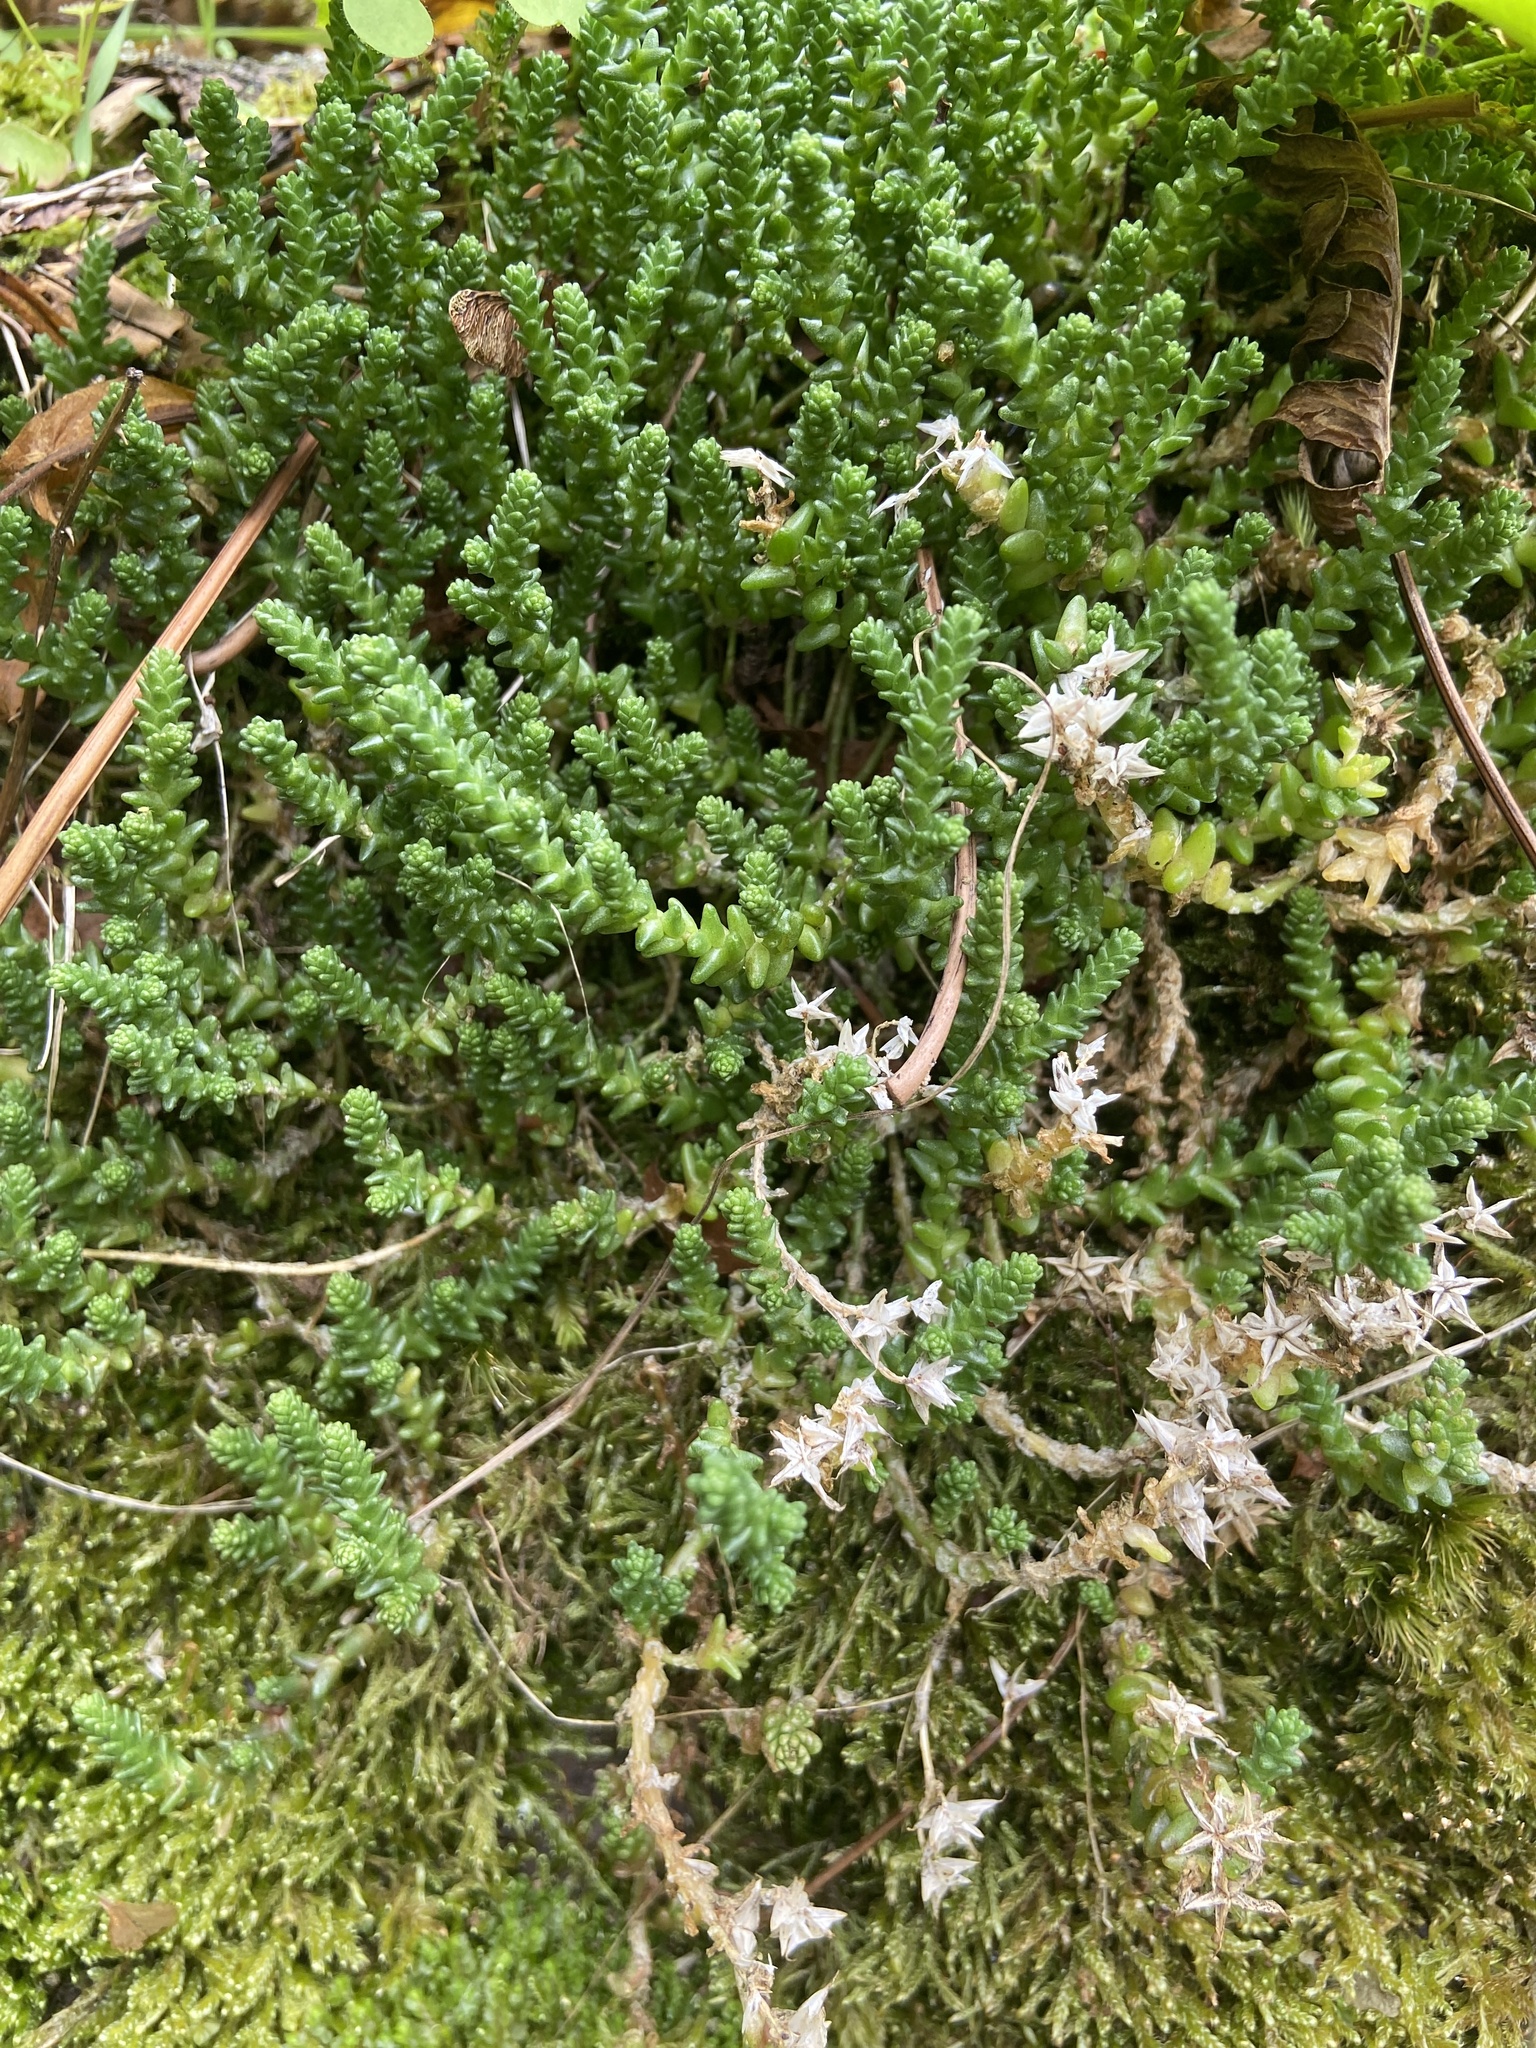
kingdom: Plantae
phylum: Tracheophyta
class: Magnoliopsida
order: Saxifragales
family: Crassulaceae
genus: Sedum
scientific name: Sedum acre
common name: Biting stonecrop
